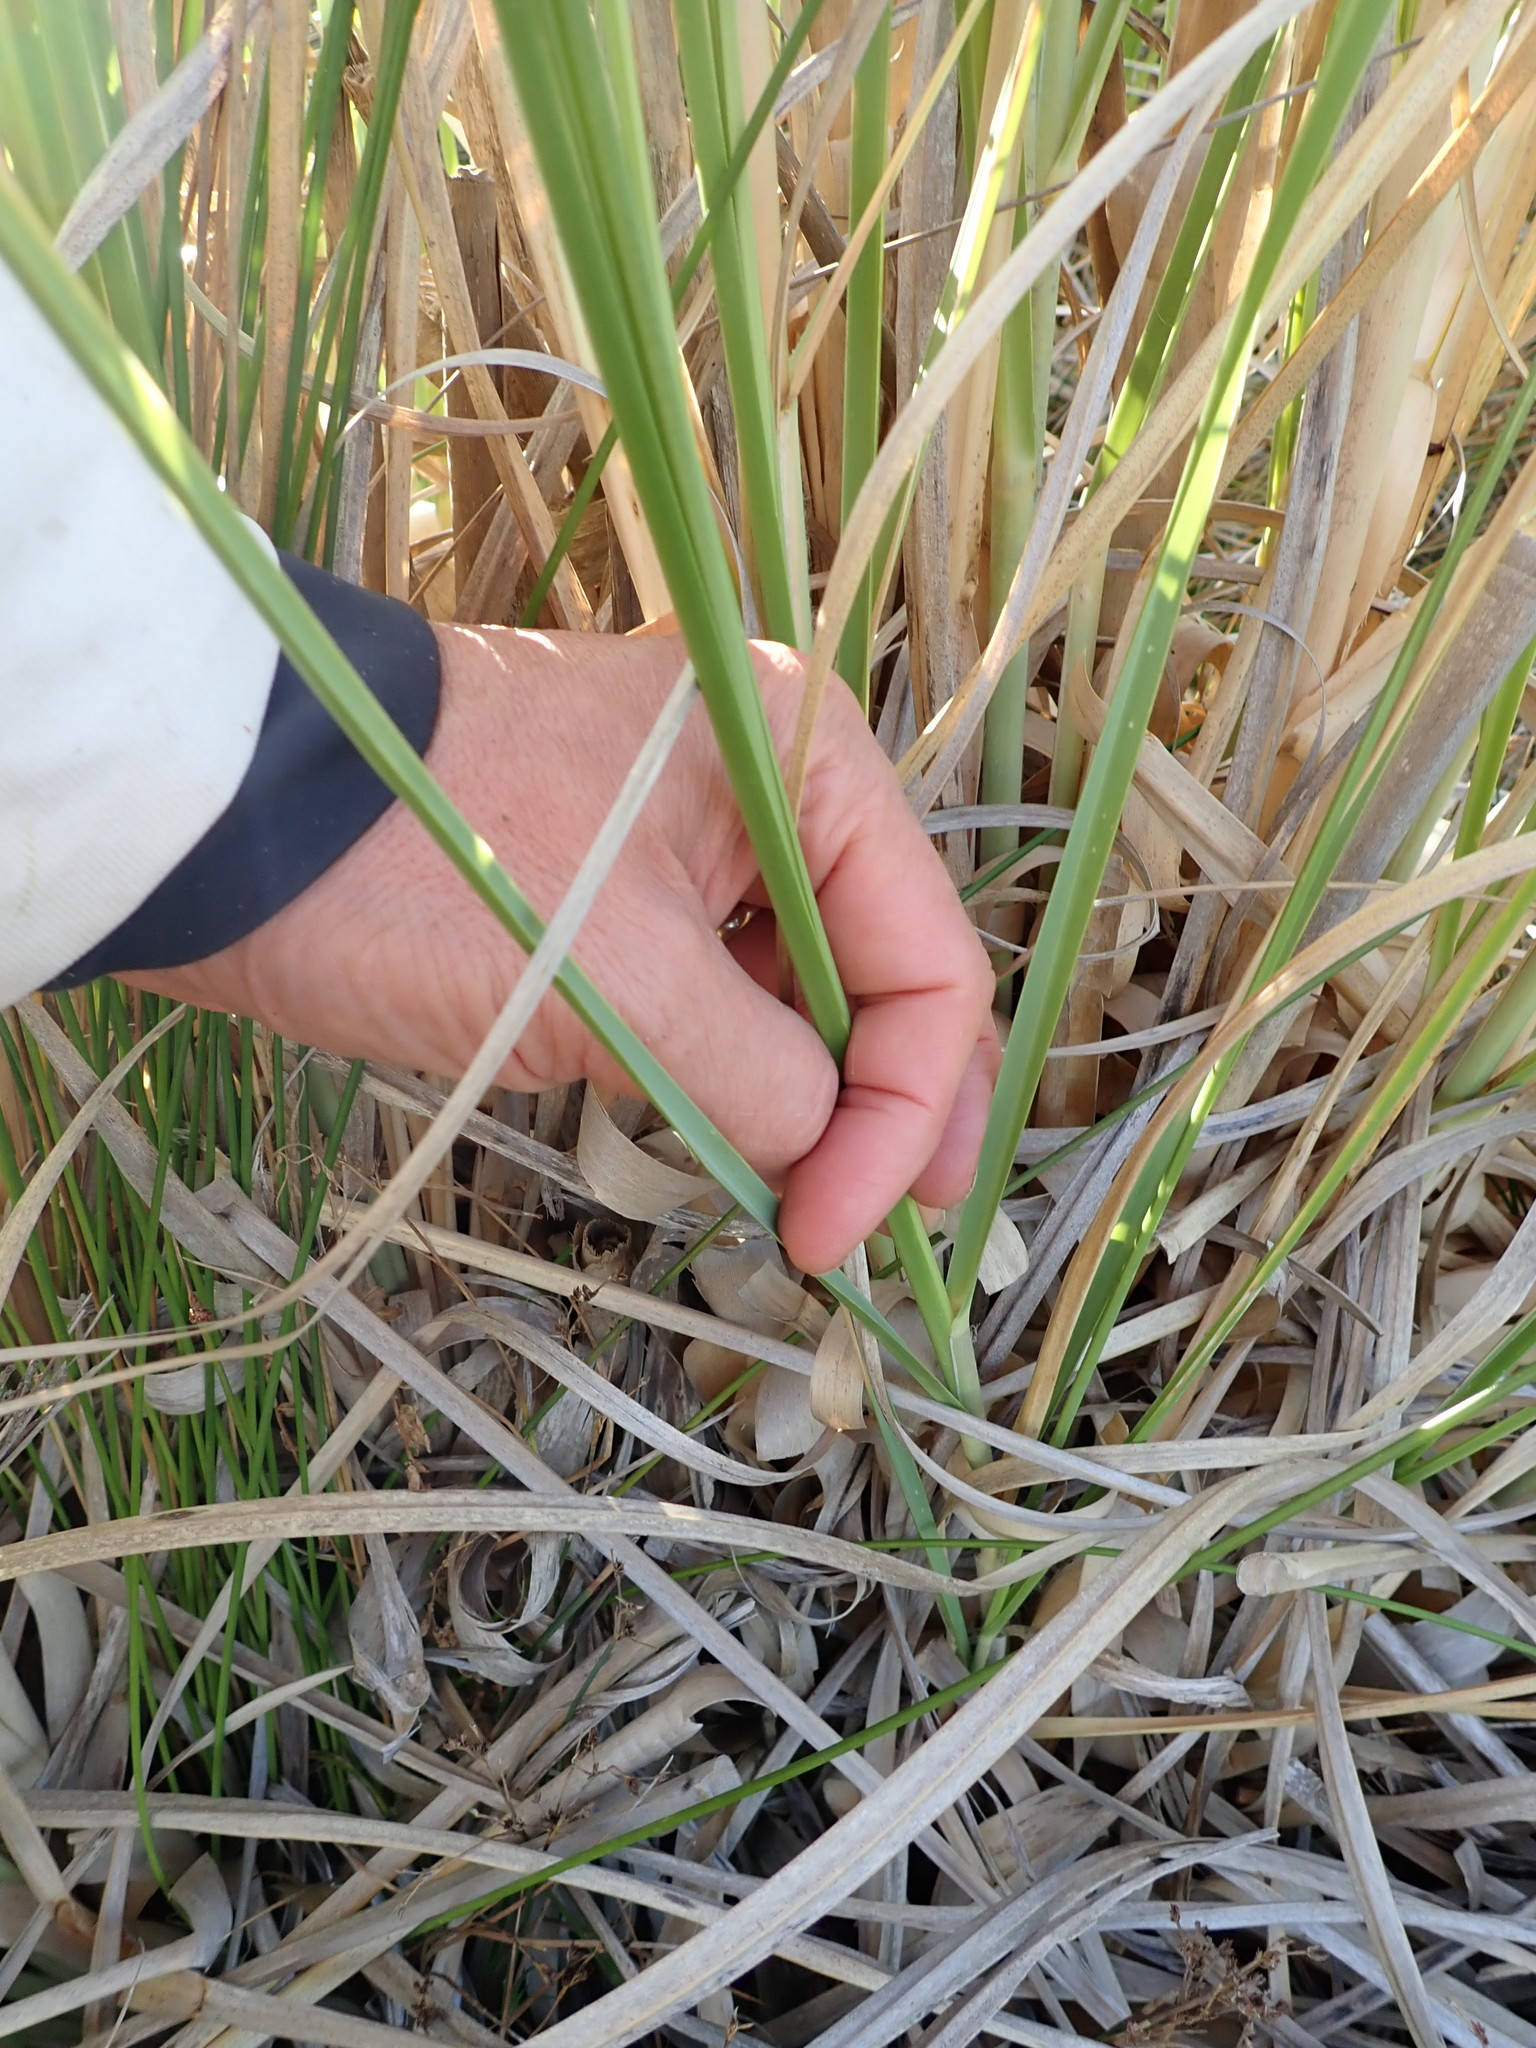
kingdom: Plantae
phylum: Tracheophyta
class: Liliopsida
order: Poales
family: Poaceae
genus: Cortaderia
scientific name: Cortaderia selloana
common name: Uruguayan pampas grass
